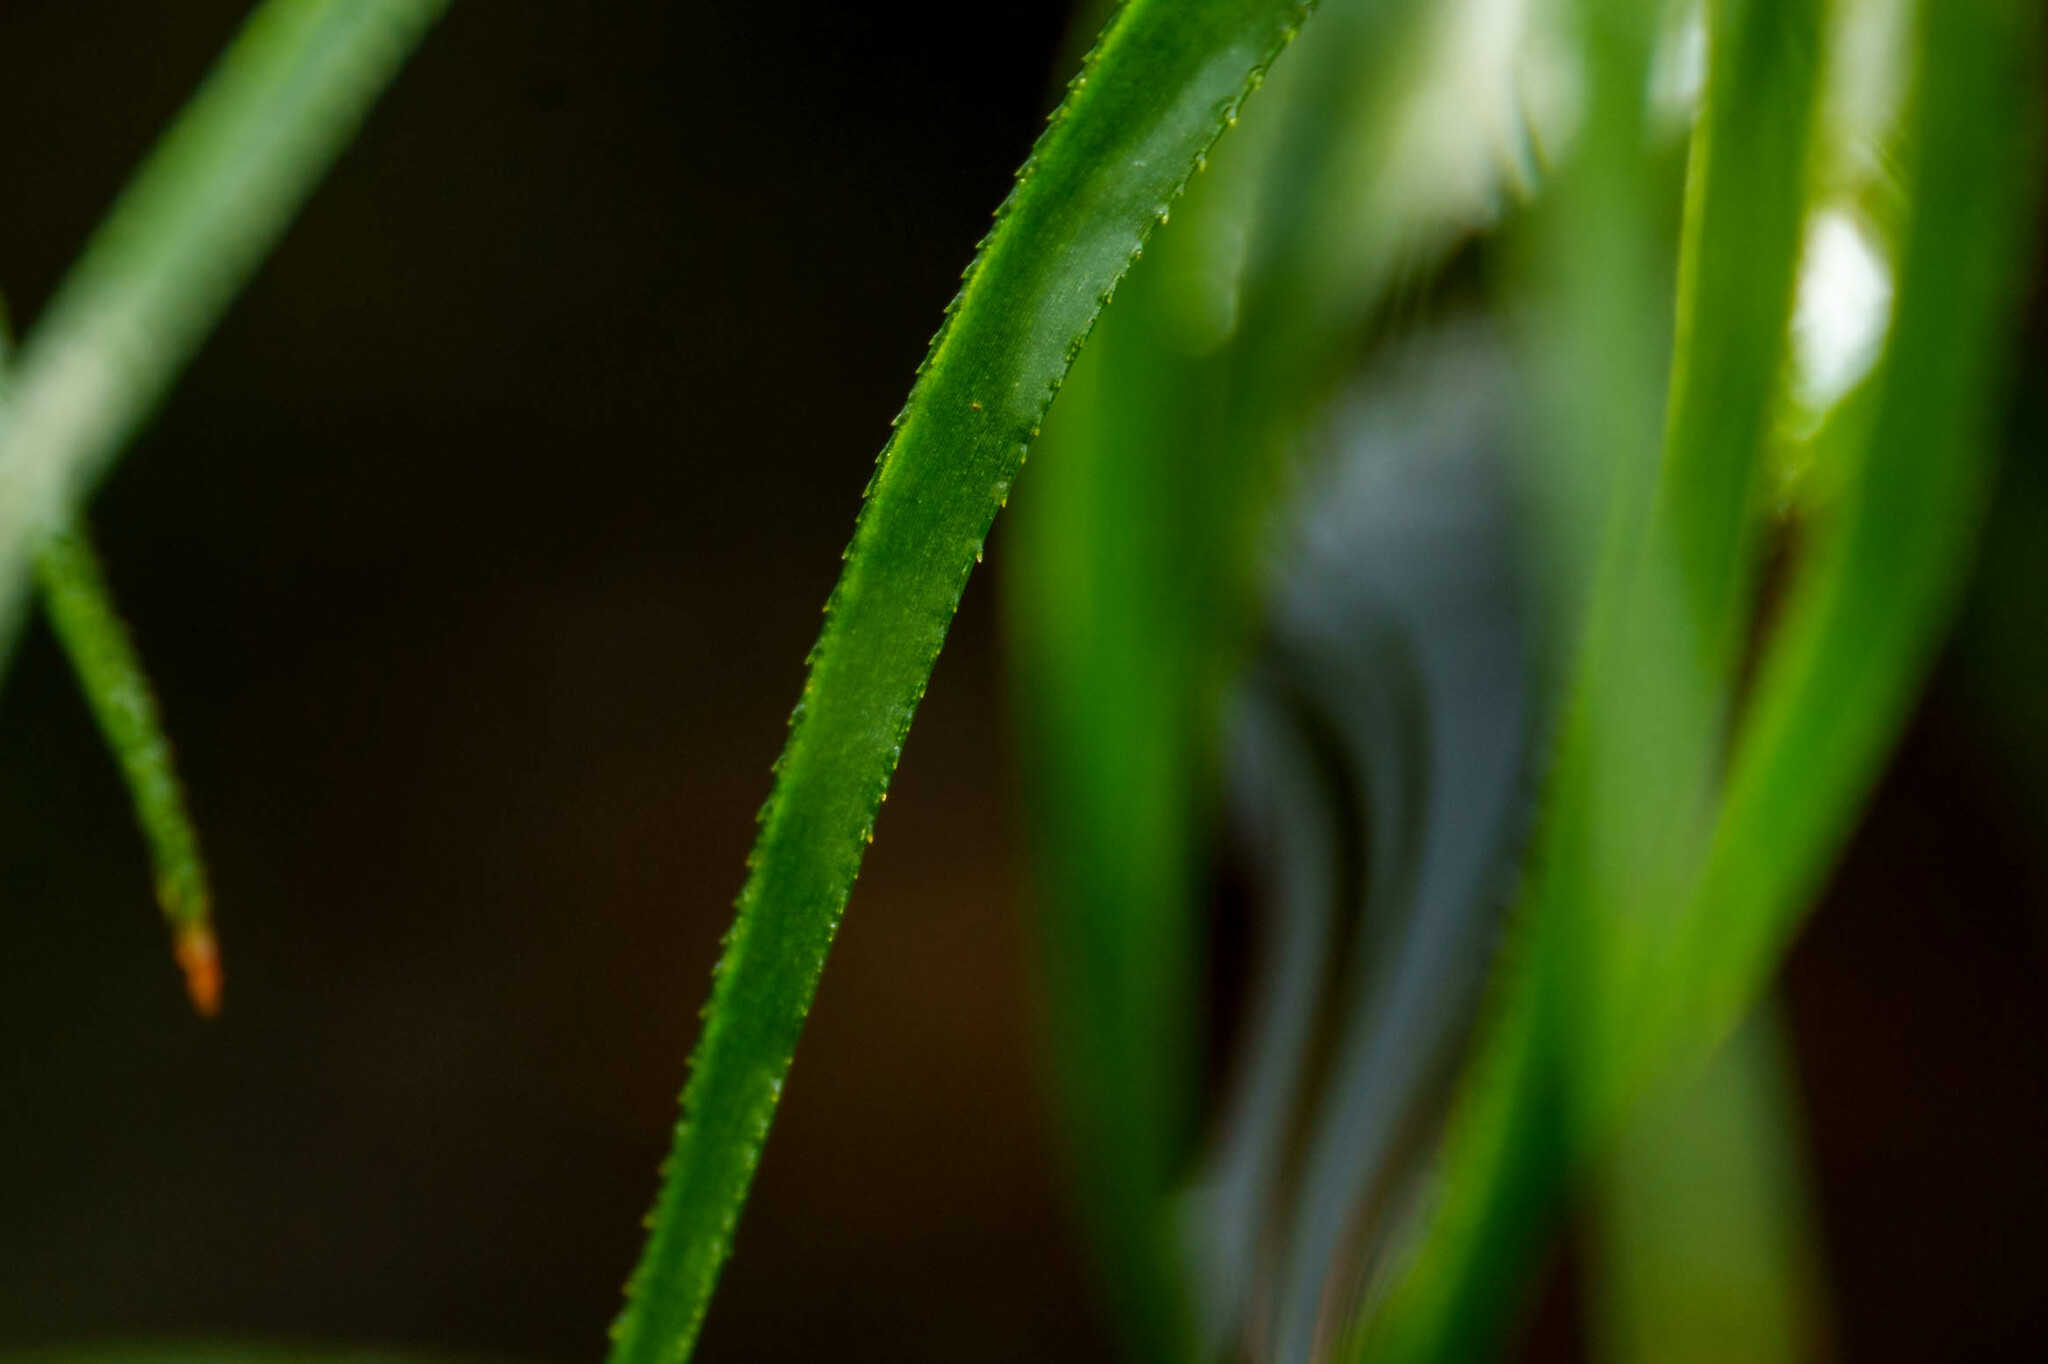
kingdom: Plantae
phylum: Bryophyta
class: Polytrichopsida
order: Polytrichales
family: Polytrichaceae
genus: Polytrichastrum
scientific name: Polytrichastrum alpinum
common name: Alpine haircap
